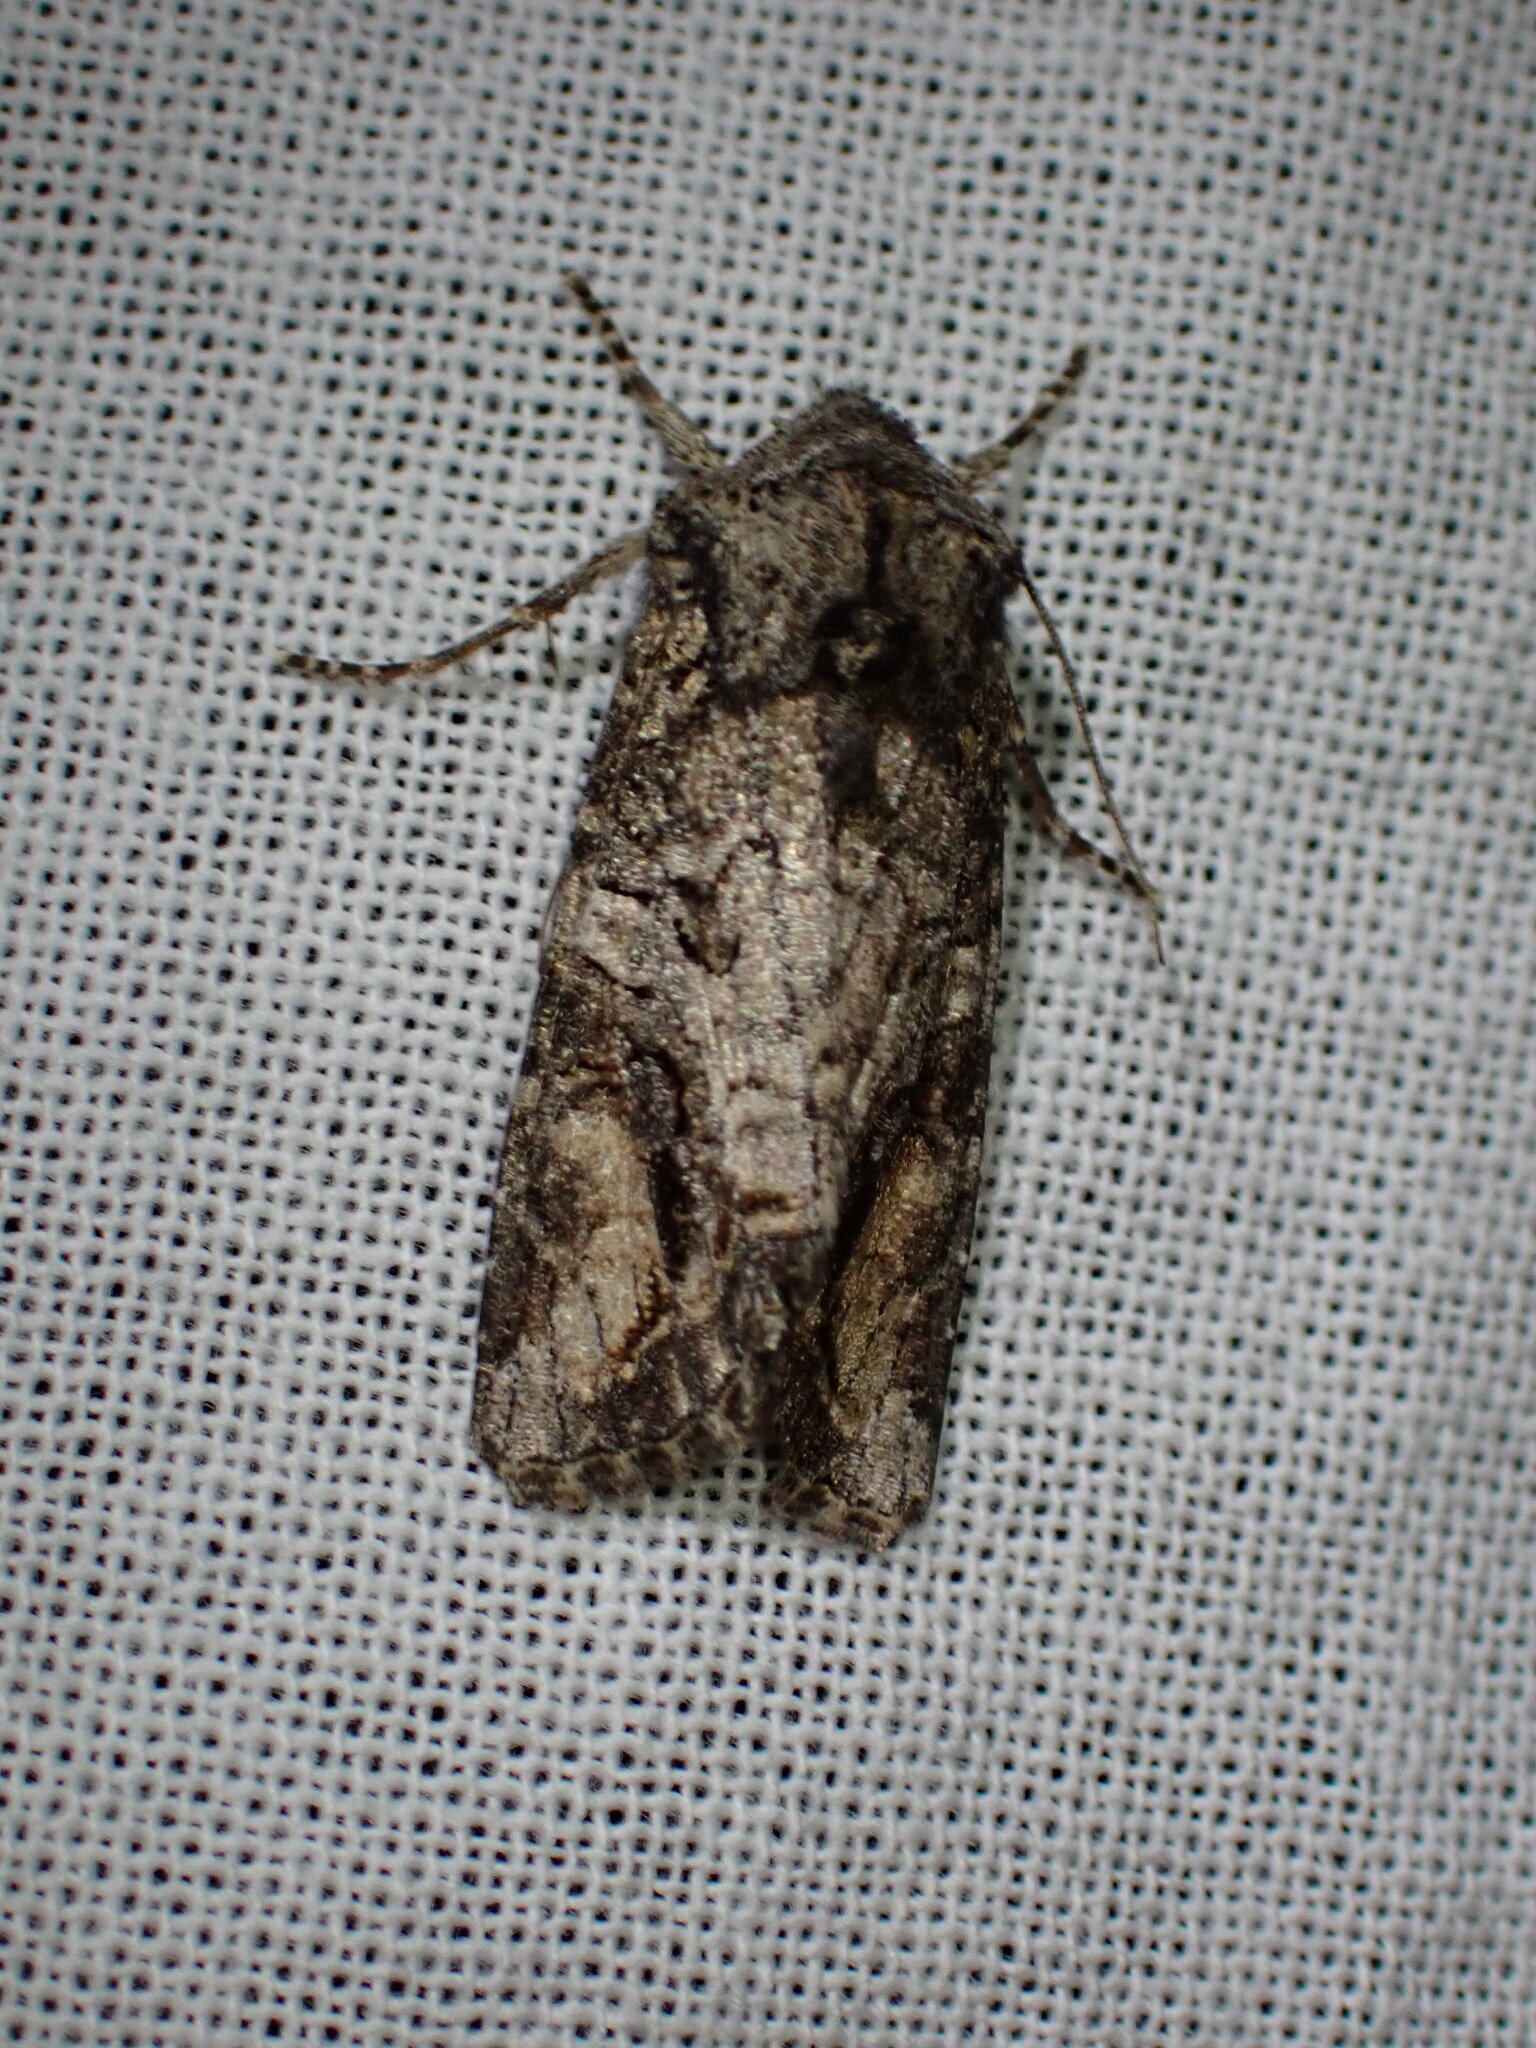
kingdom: Animalia
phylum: Arthropoda
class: Insecta
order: Lepidoptera
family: Noctuidae
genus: Egira
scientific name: Egira perlubens
